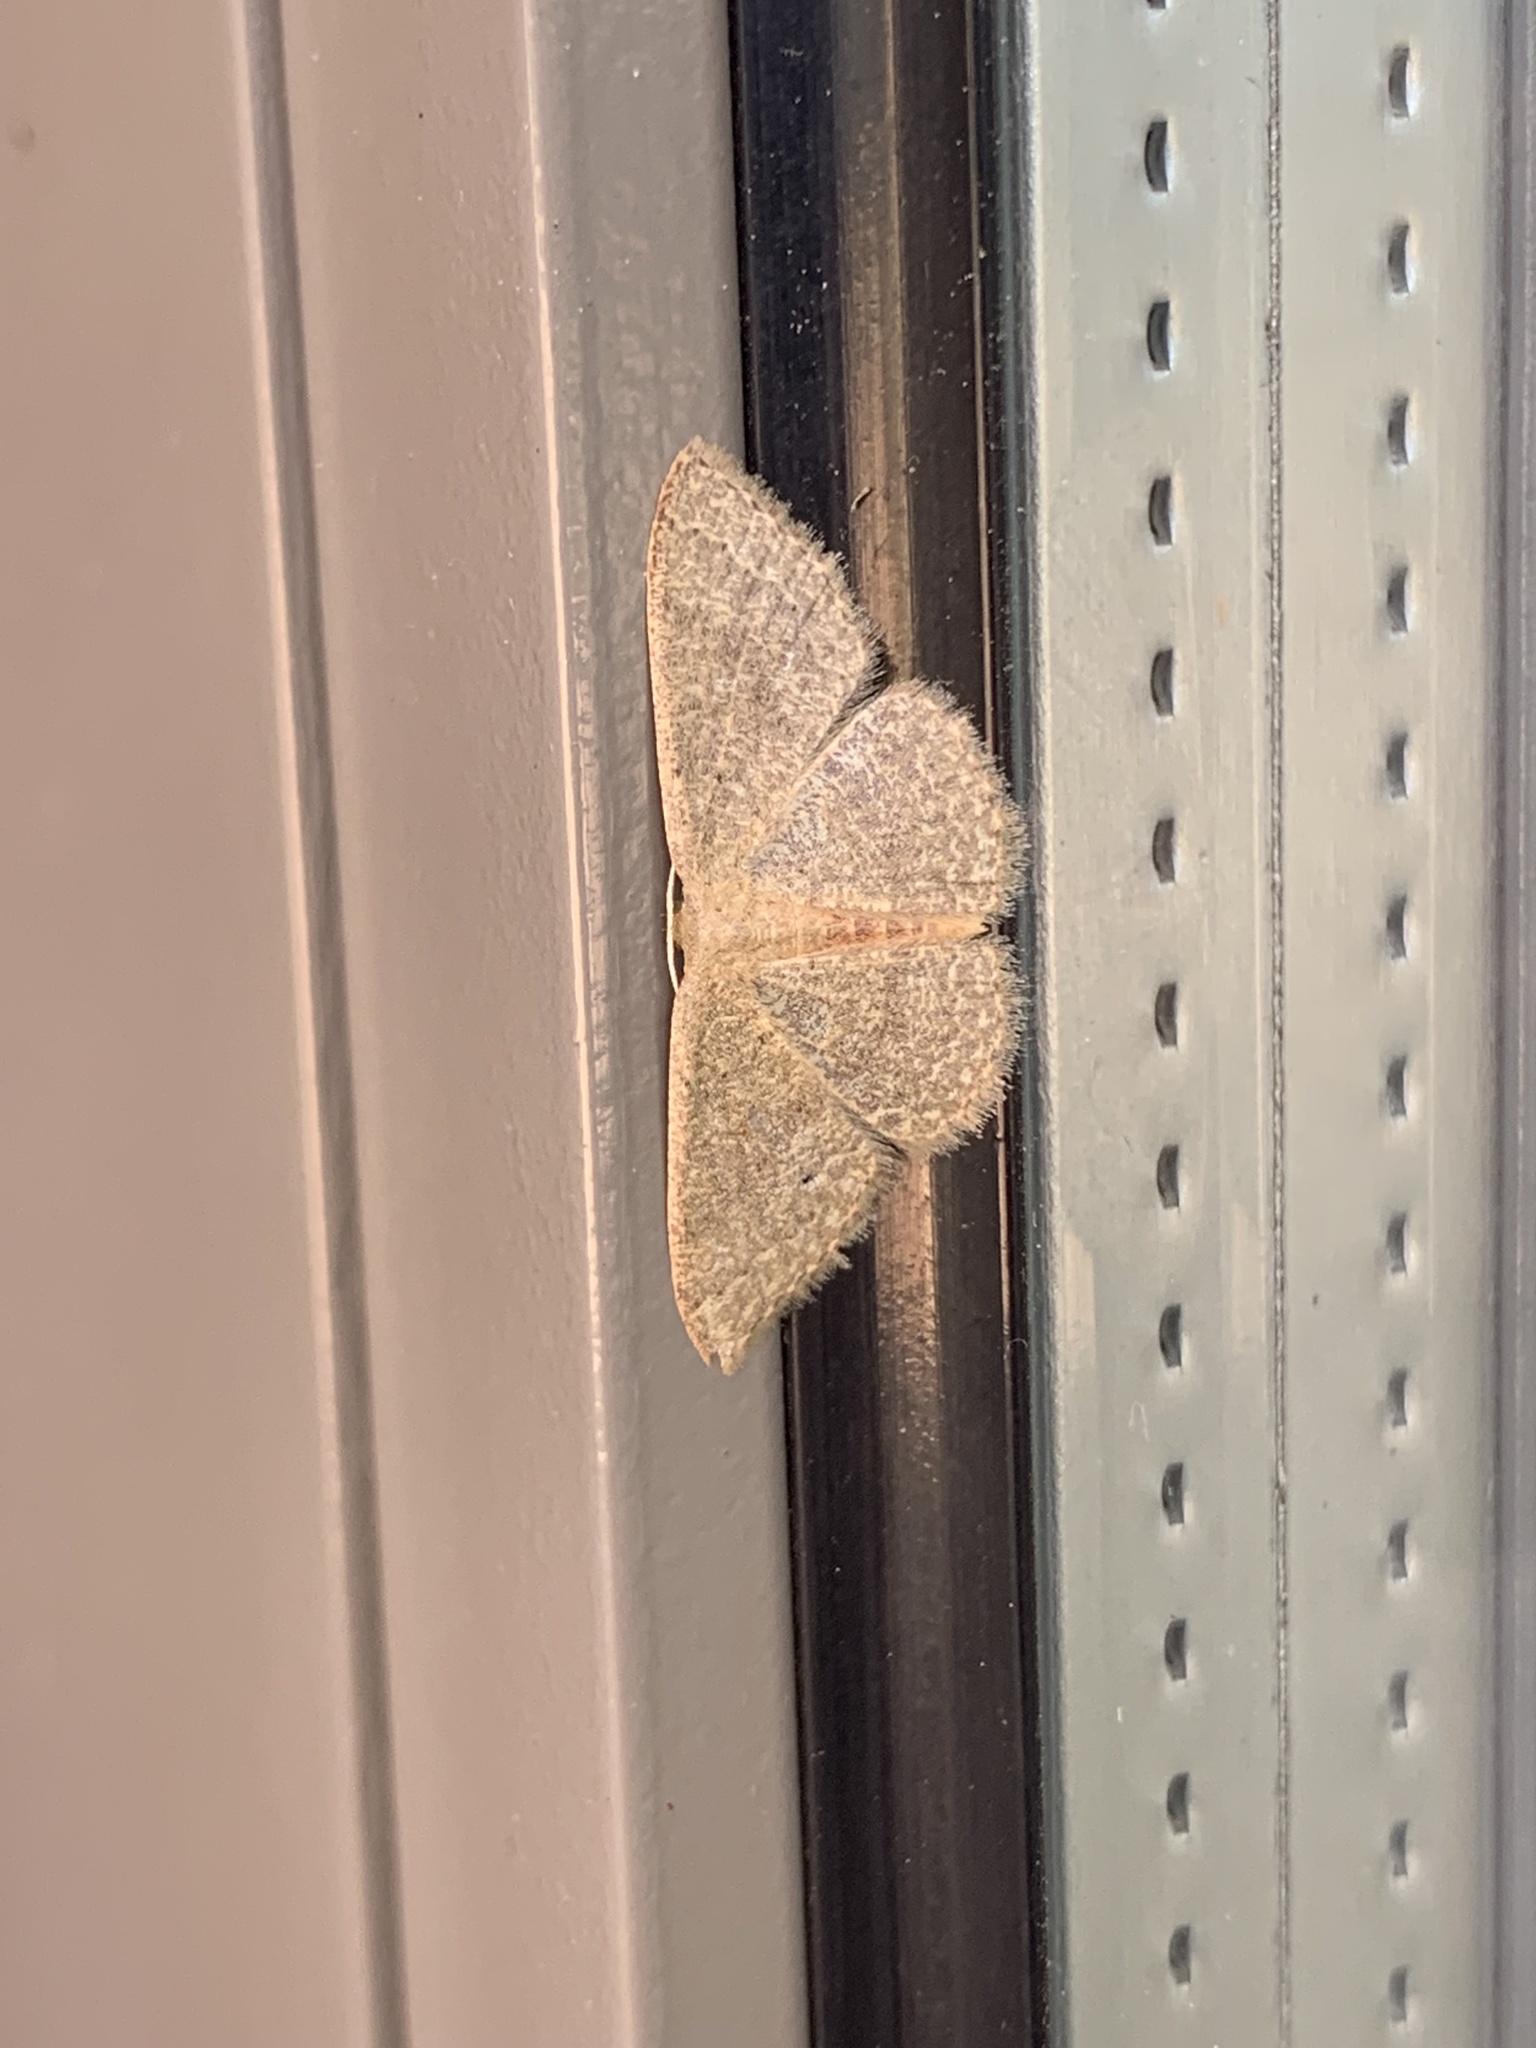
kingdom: Animalia
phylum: Arthropoda
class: Insecta
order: Lepidoptera
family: Geometridae
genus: Pleuroprucha
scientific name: Pleuroprucha insulsaria
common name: Common tan wave
